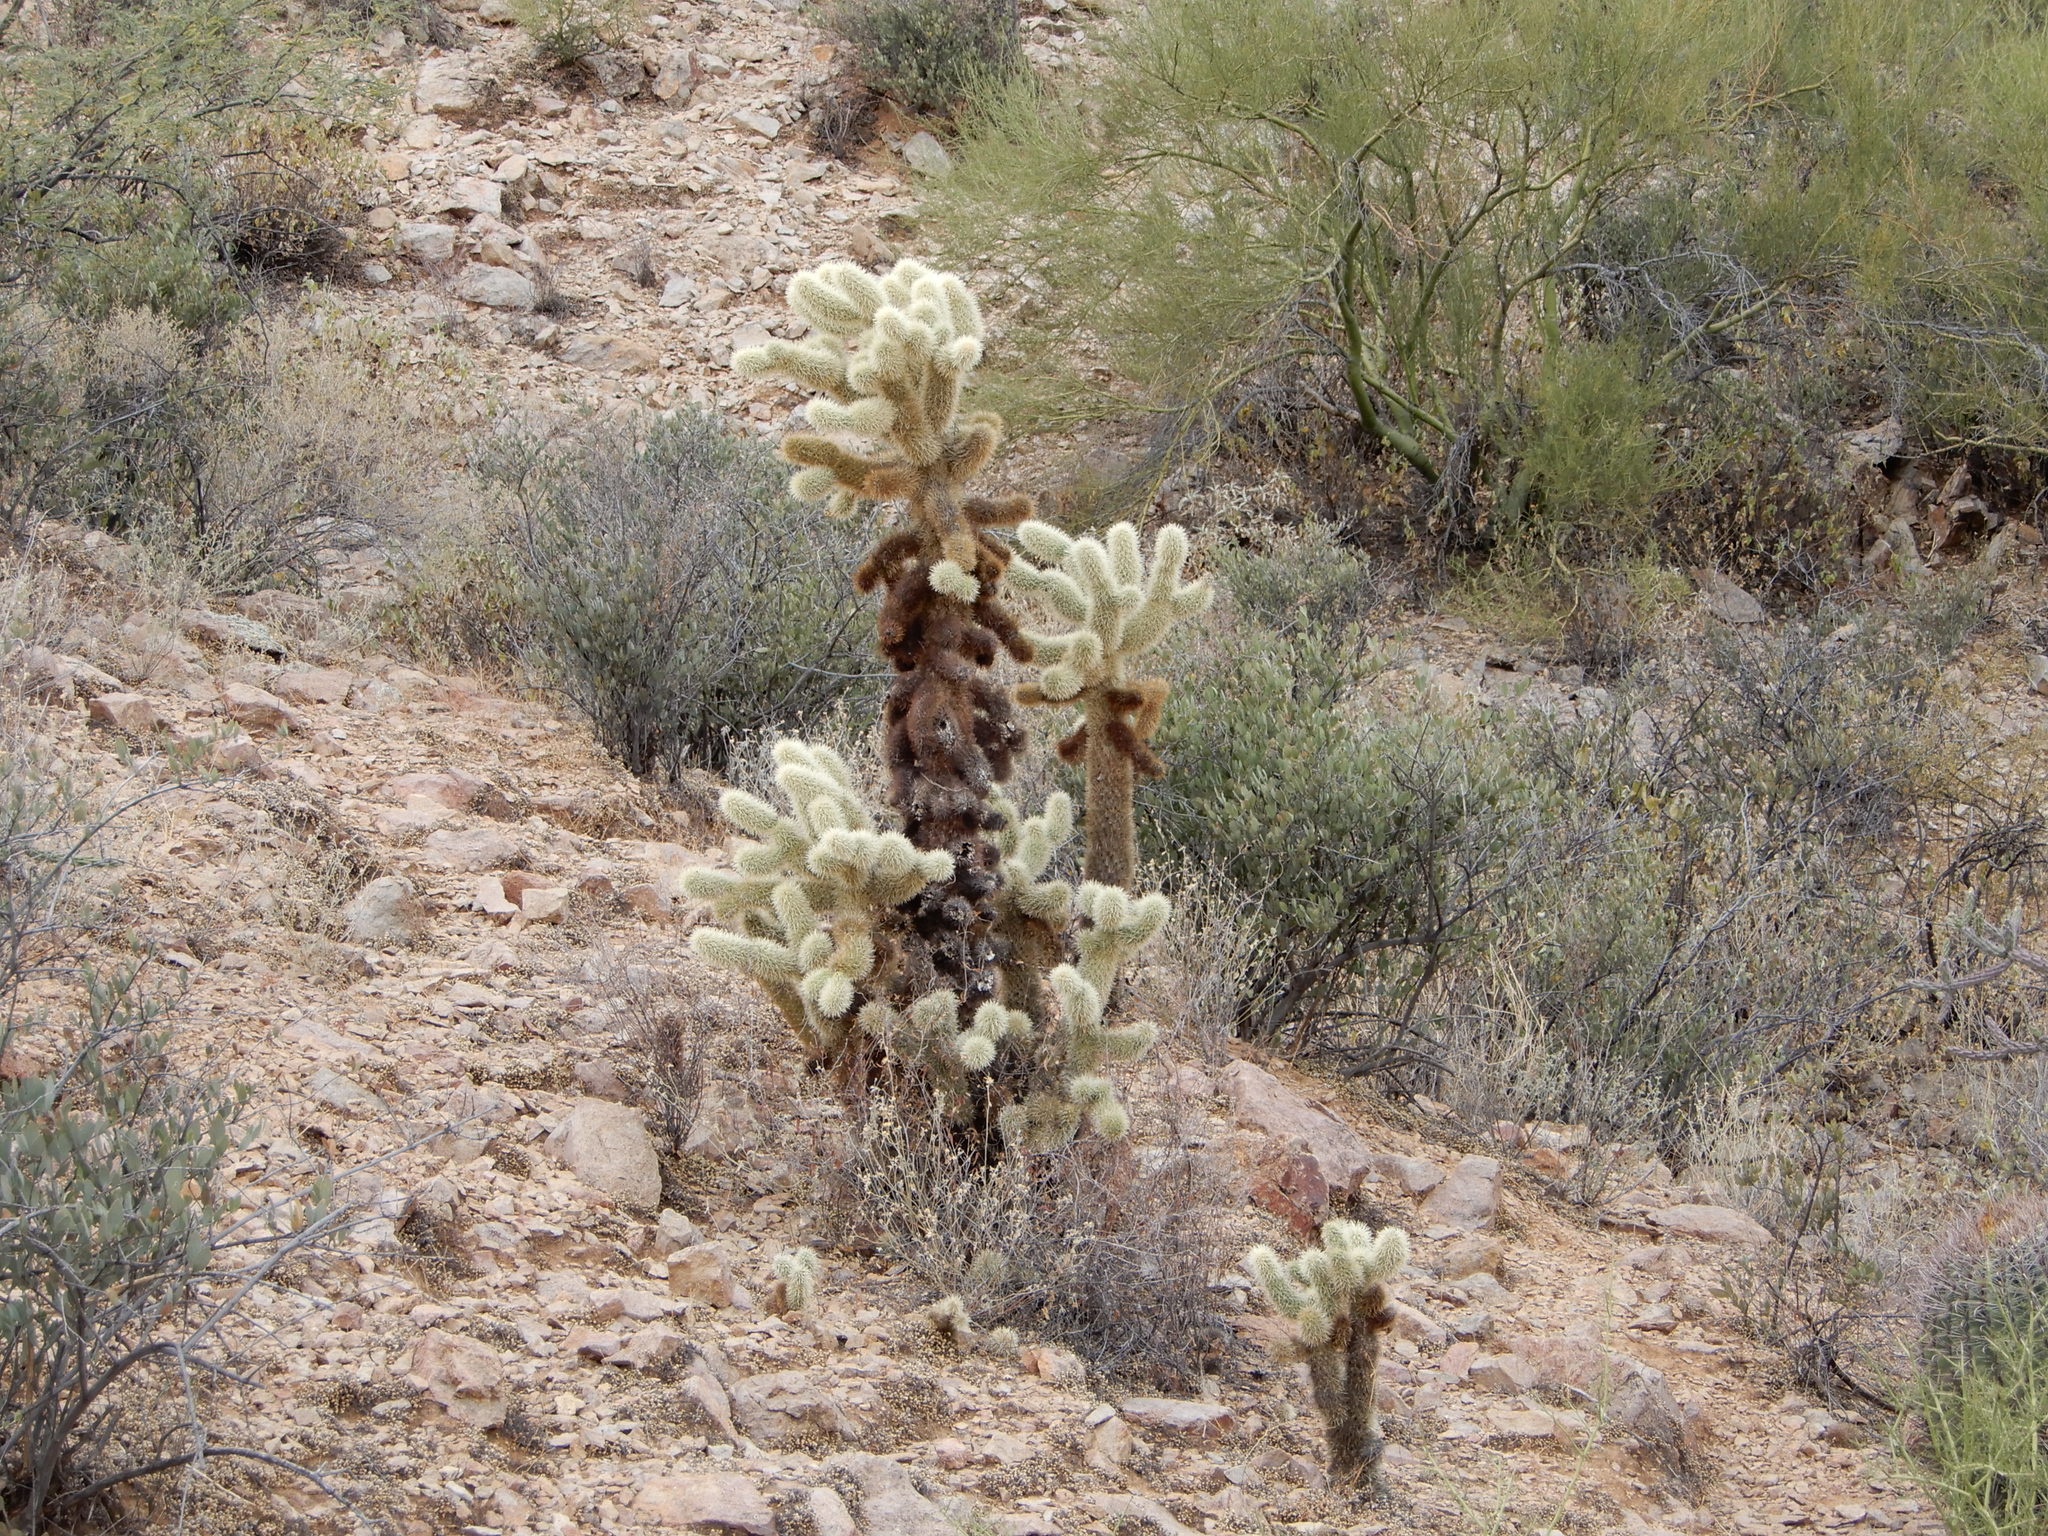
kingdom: Plantae
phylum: Tracheophyta
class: Magnoliopsida
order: Caryophyllales
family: Cactaceae
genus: Cylindropuntia
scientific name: Cylindropuntia fosbergii
